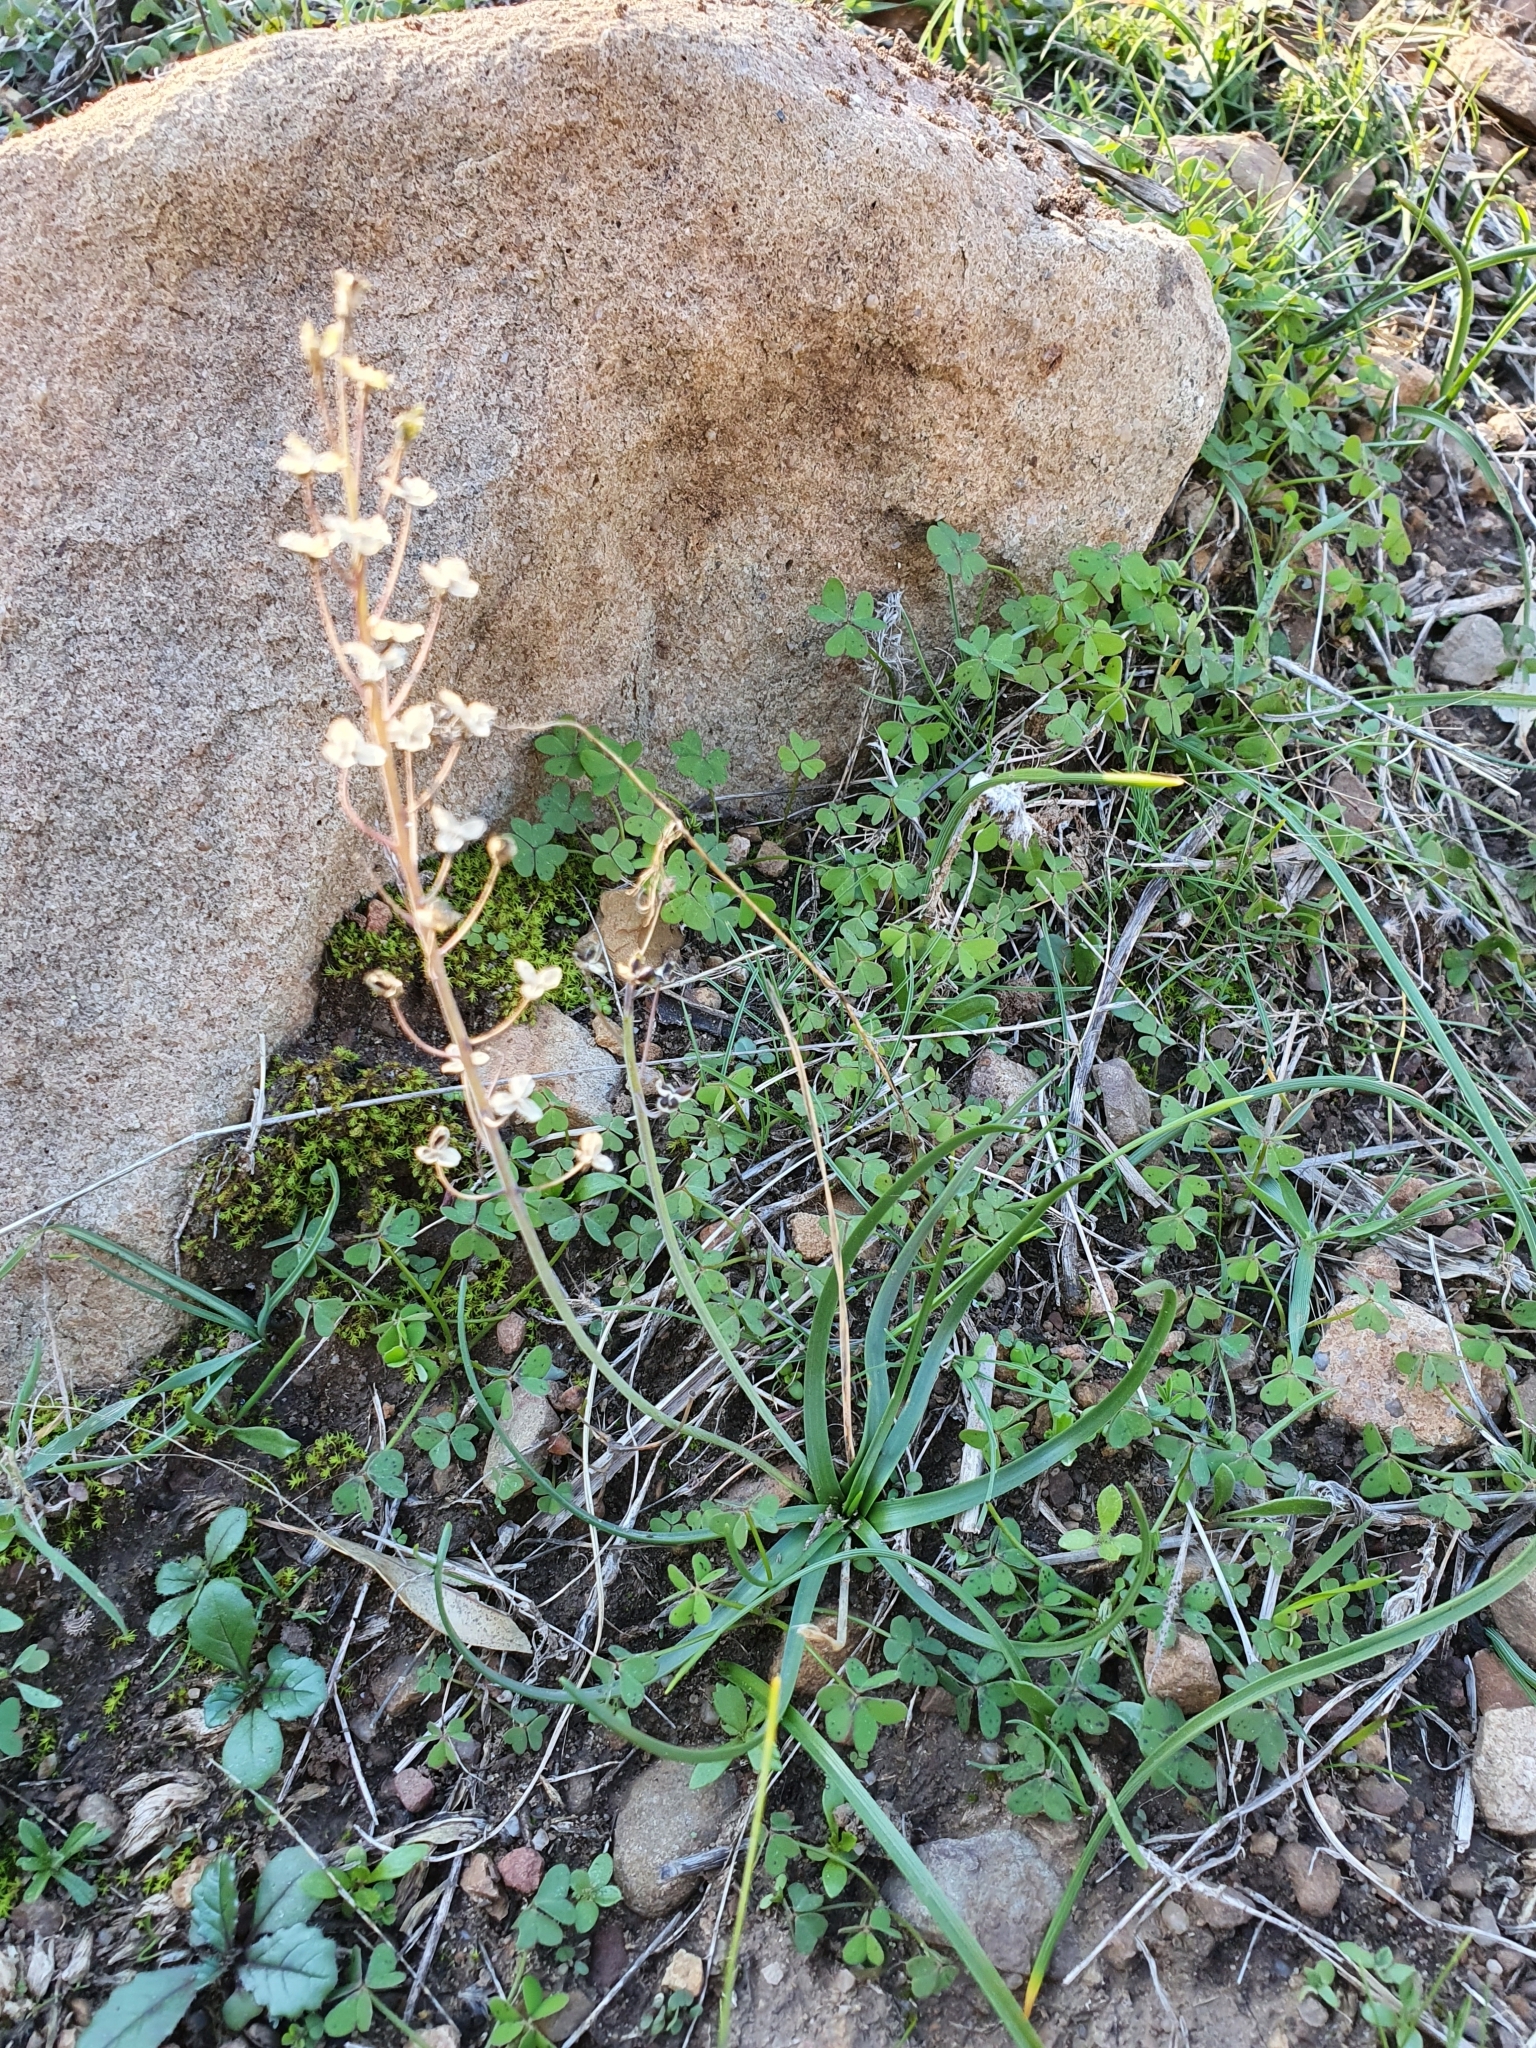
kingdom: Plantae
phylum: Tracheophyta
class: Liliopsida
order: Asparagales
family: Asparagaceae
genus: Prospero
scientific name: Prospero fallax
